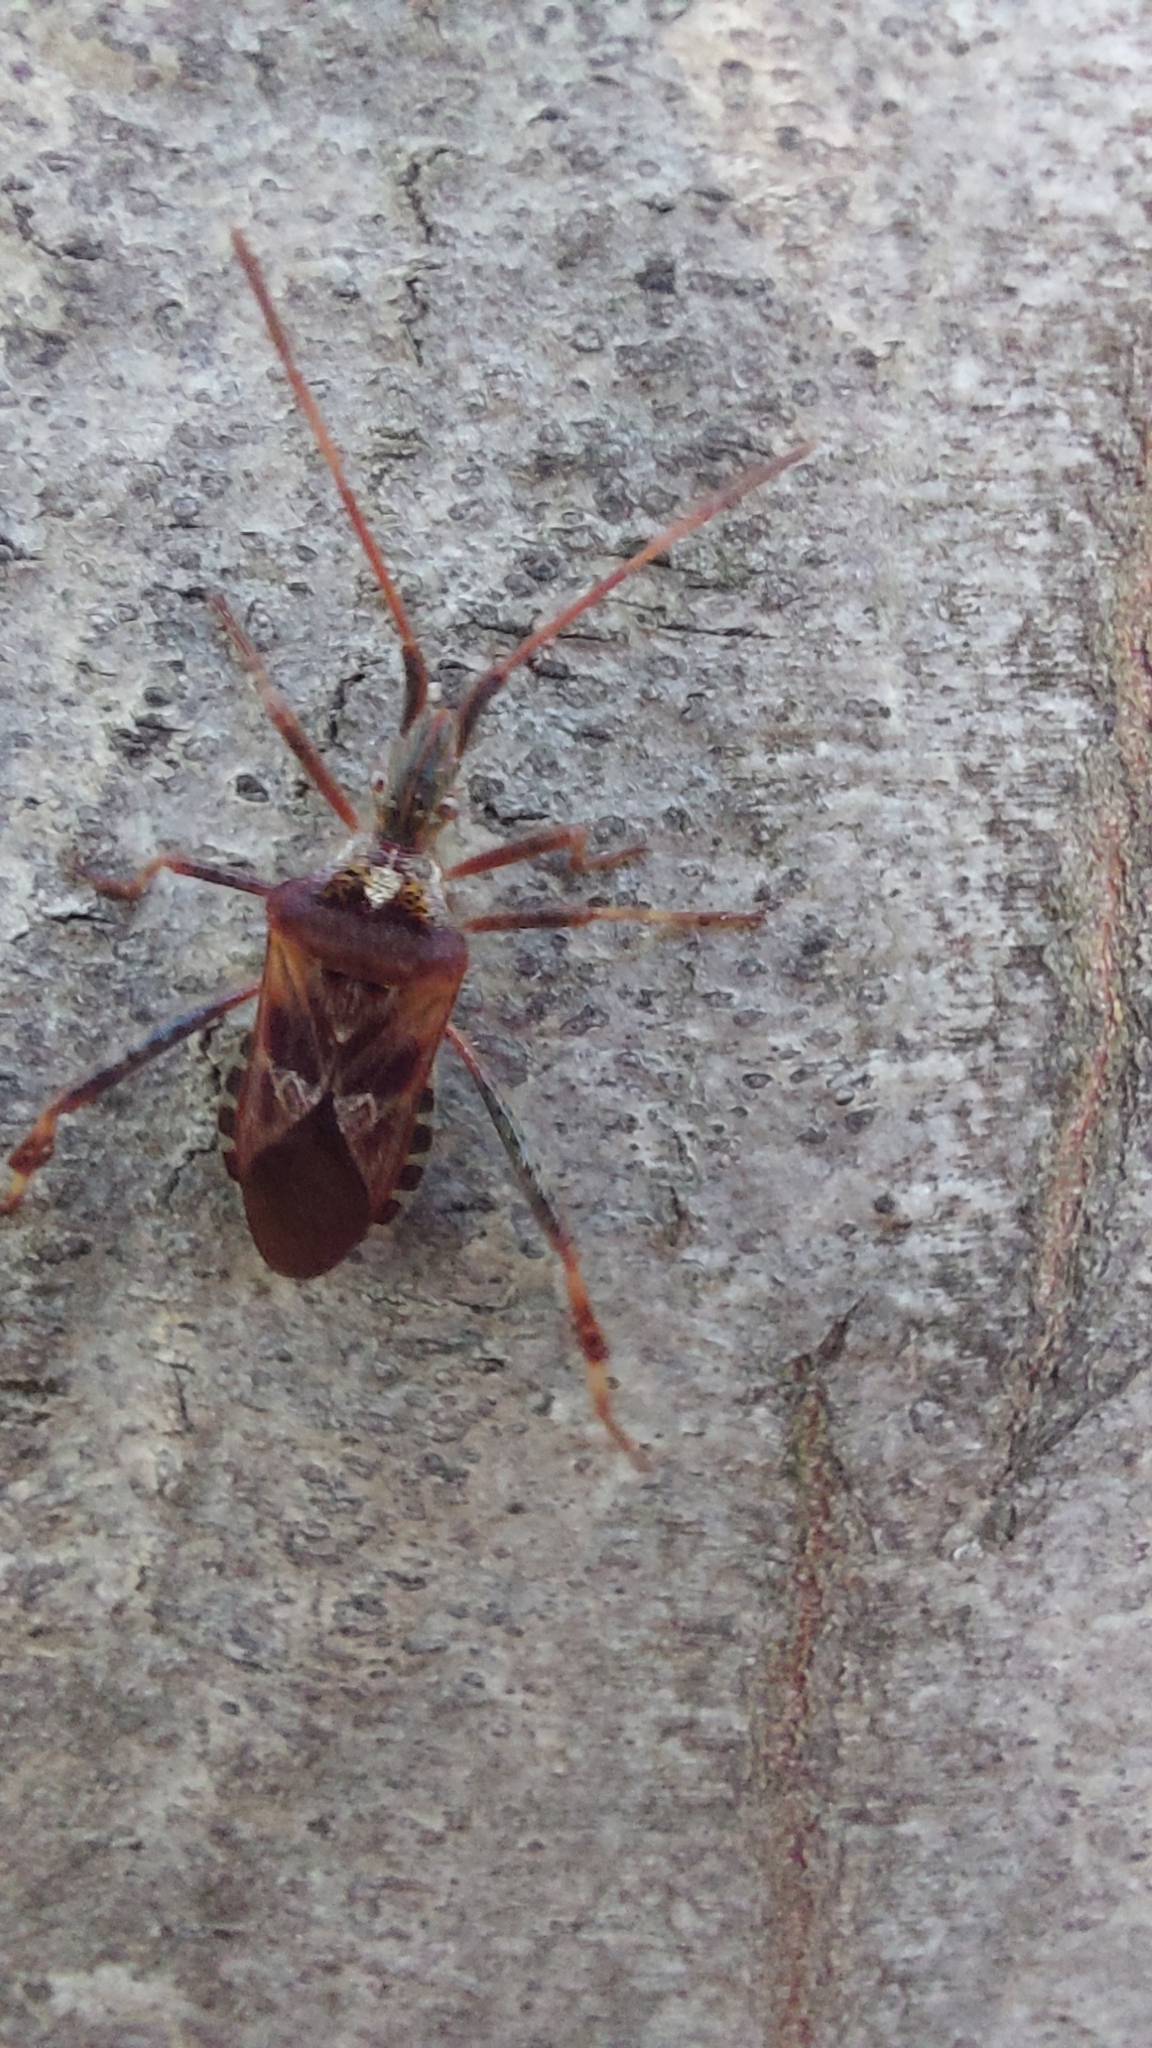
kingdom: Animalia
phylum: Arthropoda
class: Insecta
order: Hemiptera
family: Coreidae
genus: Leptoglossus
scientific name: Leptoglossus occidentalis
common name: Western conifer-seed bug
